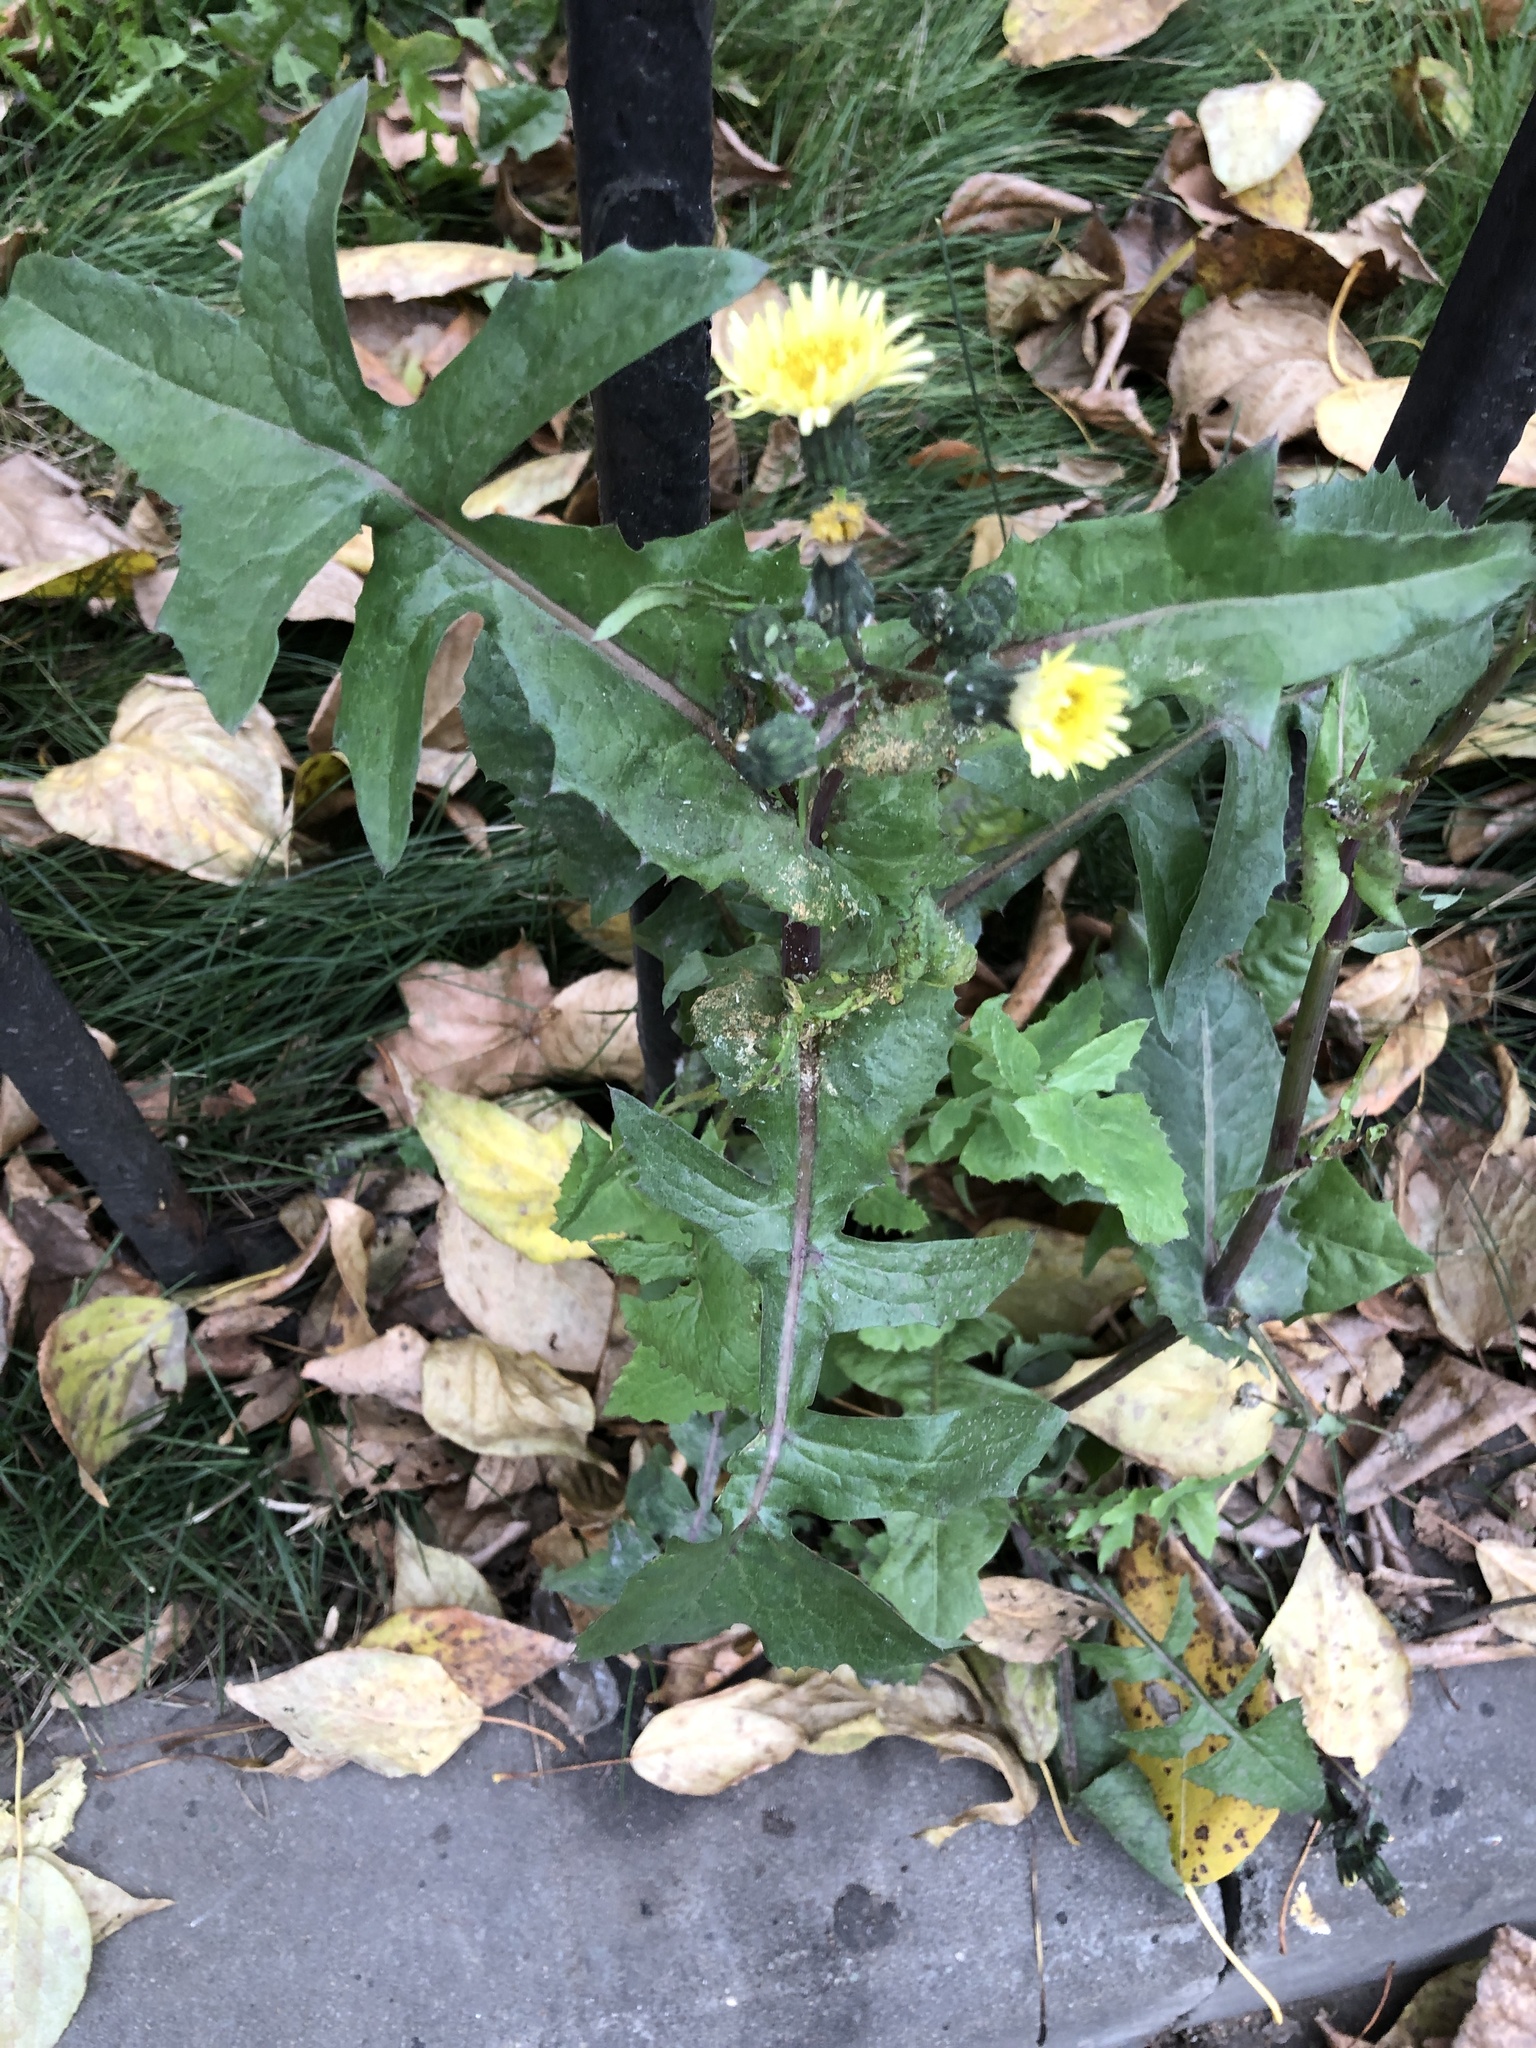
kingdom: Plantae
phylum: Tracheophyta
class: Magnoliopsida
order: Asterales
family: Asteraceae
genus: Sonchus
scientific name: Sonchus oleraceus
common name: Common sowthistle
